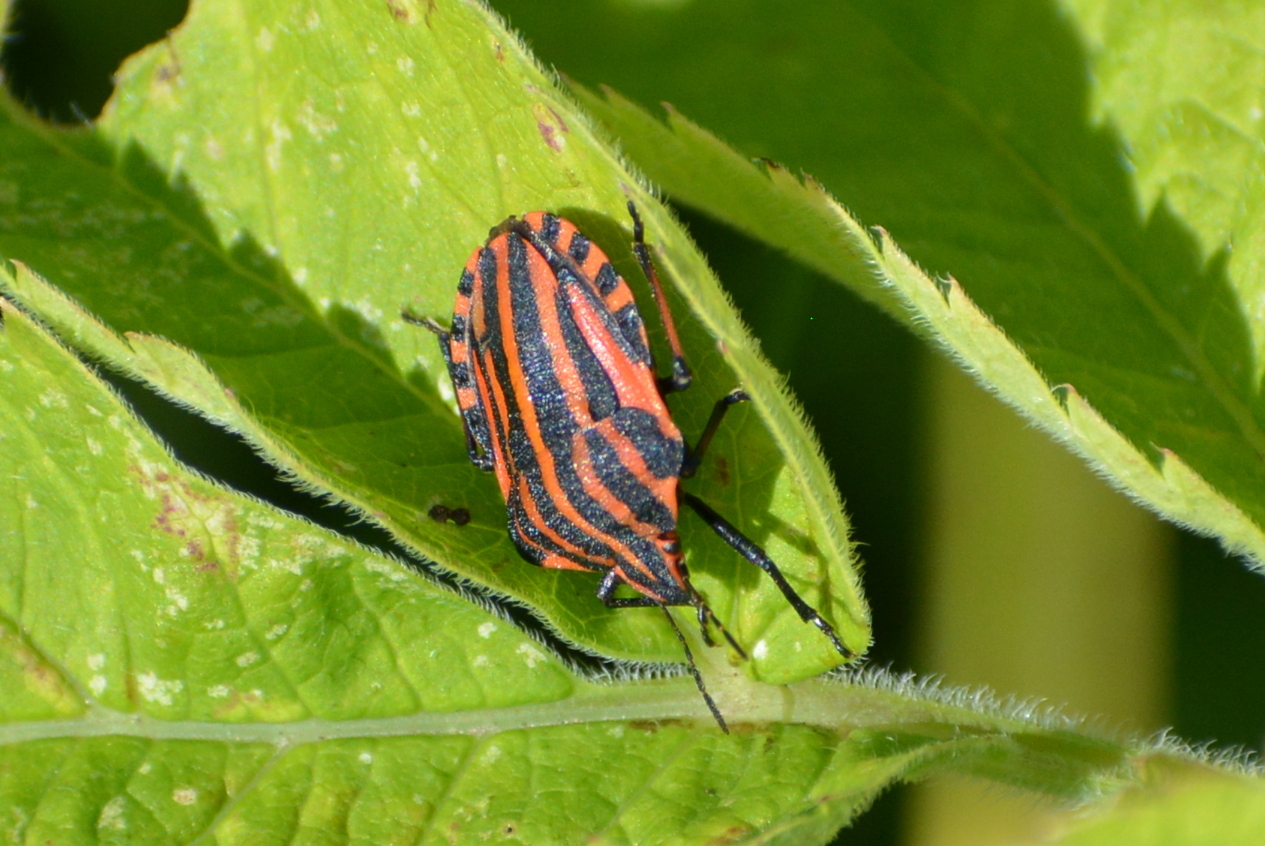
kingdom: Animalia
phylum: Arthropoda
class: Insecta
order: Hemiptera
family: Pentatomidae
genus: Graphosoma
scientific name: Graphosoma italicum
